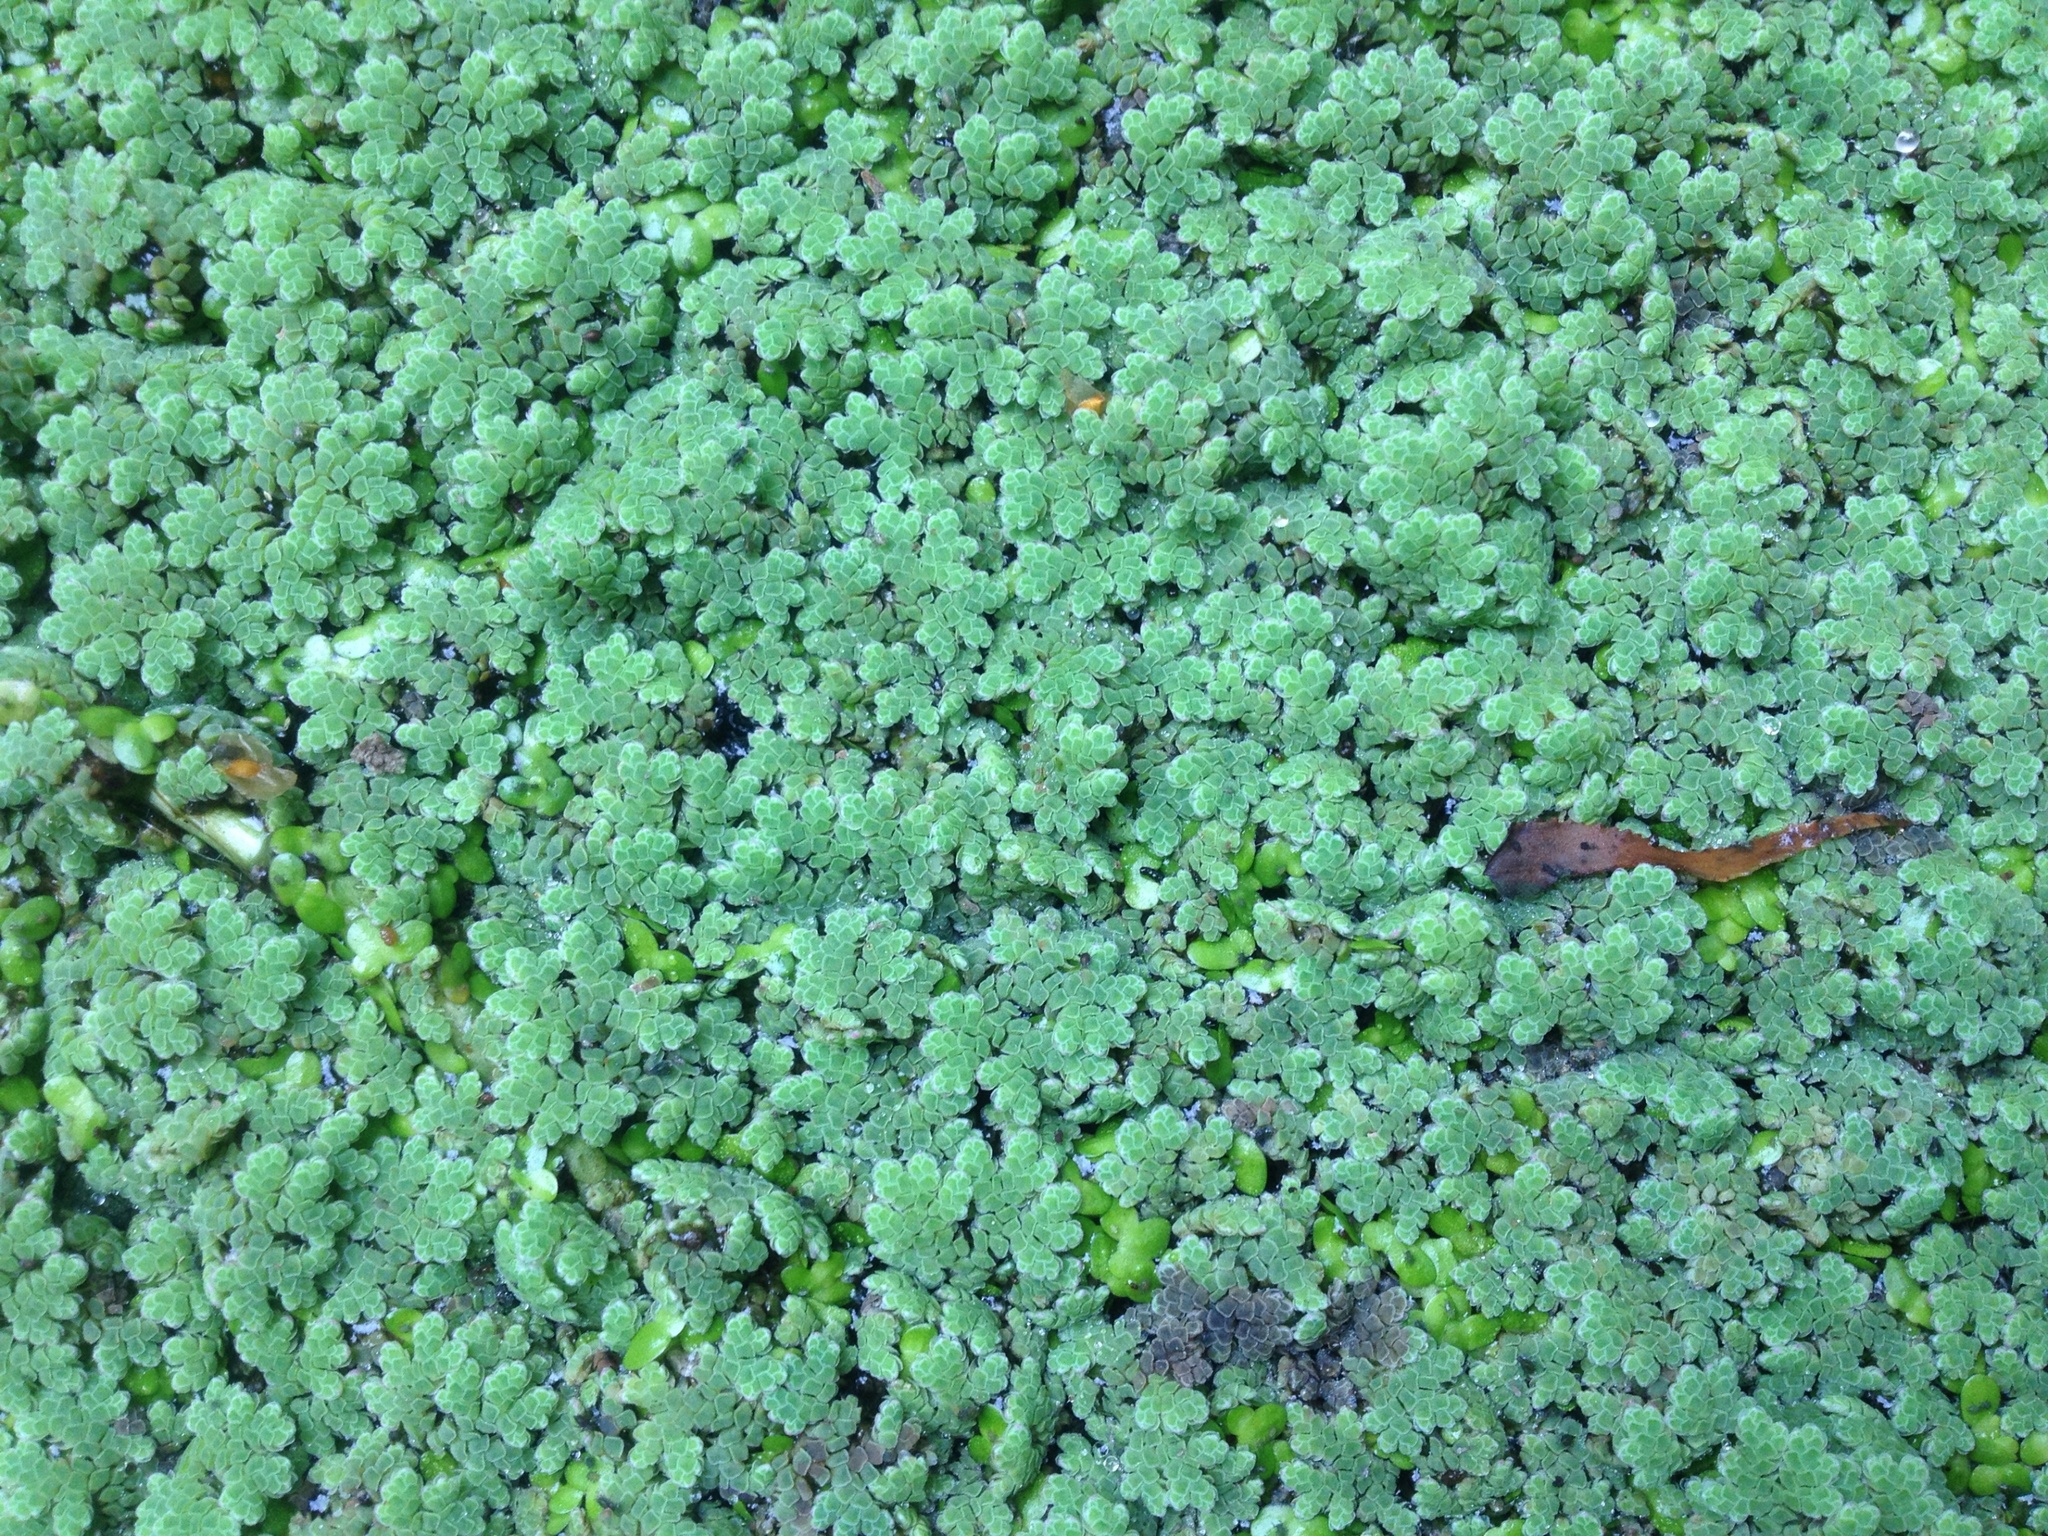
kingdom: Plantae
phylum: Tracheophyta
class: Liliopsida
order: Alismatales
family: Araceae
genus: Lemna
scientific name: Lemna
